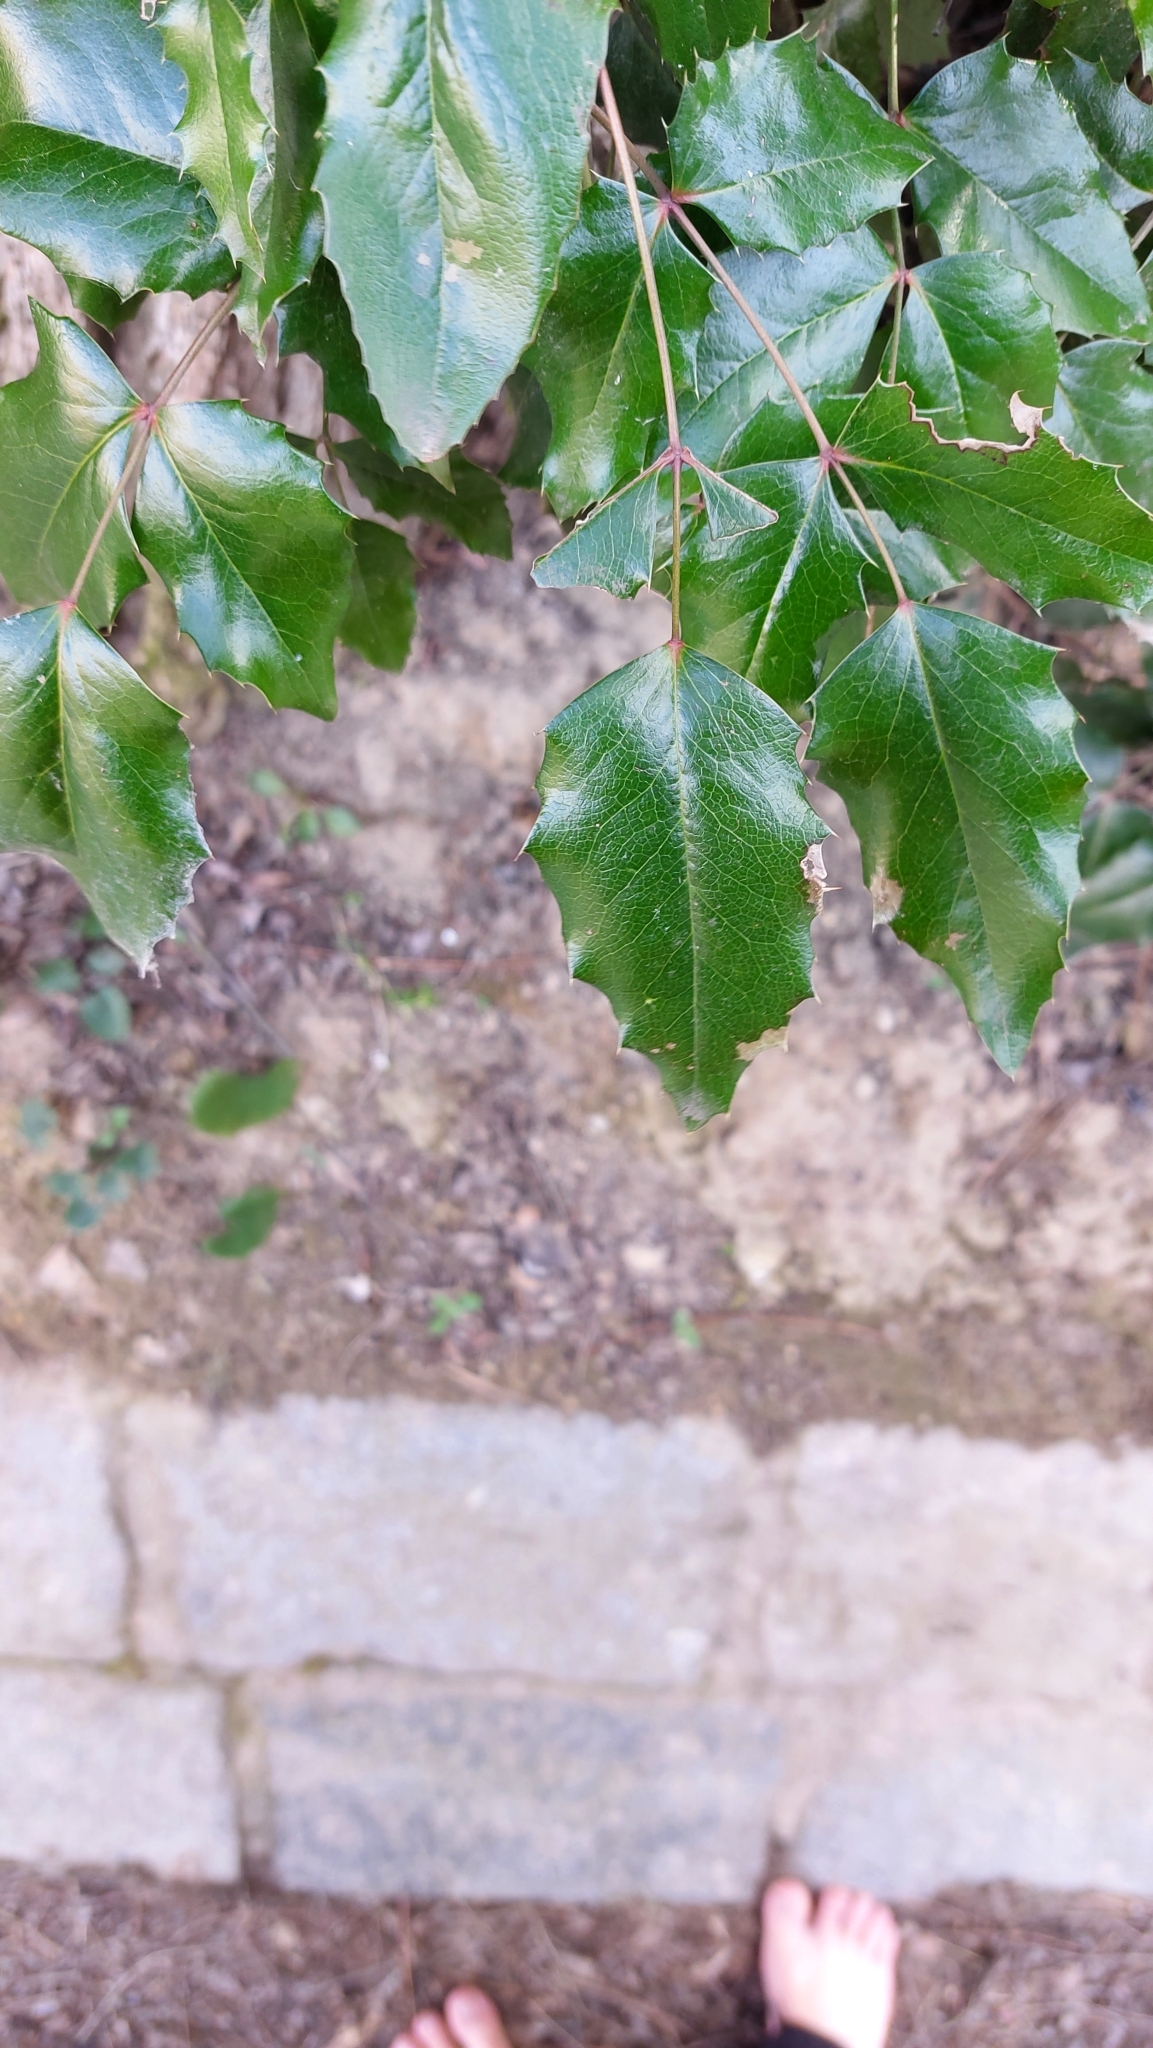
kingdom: Plantae
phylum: Tracheophyta
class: Magnoliopsida
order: Ranunculales
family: Berberidaceae
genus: Mahonia
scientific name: Mahonia aquifolium
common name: Oregon-grape
